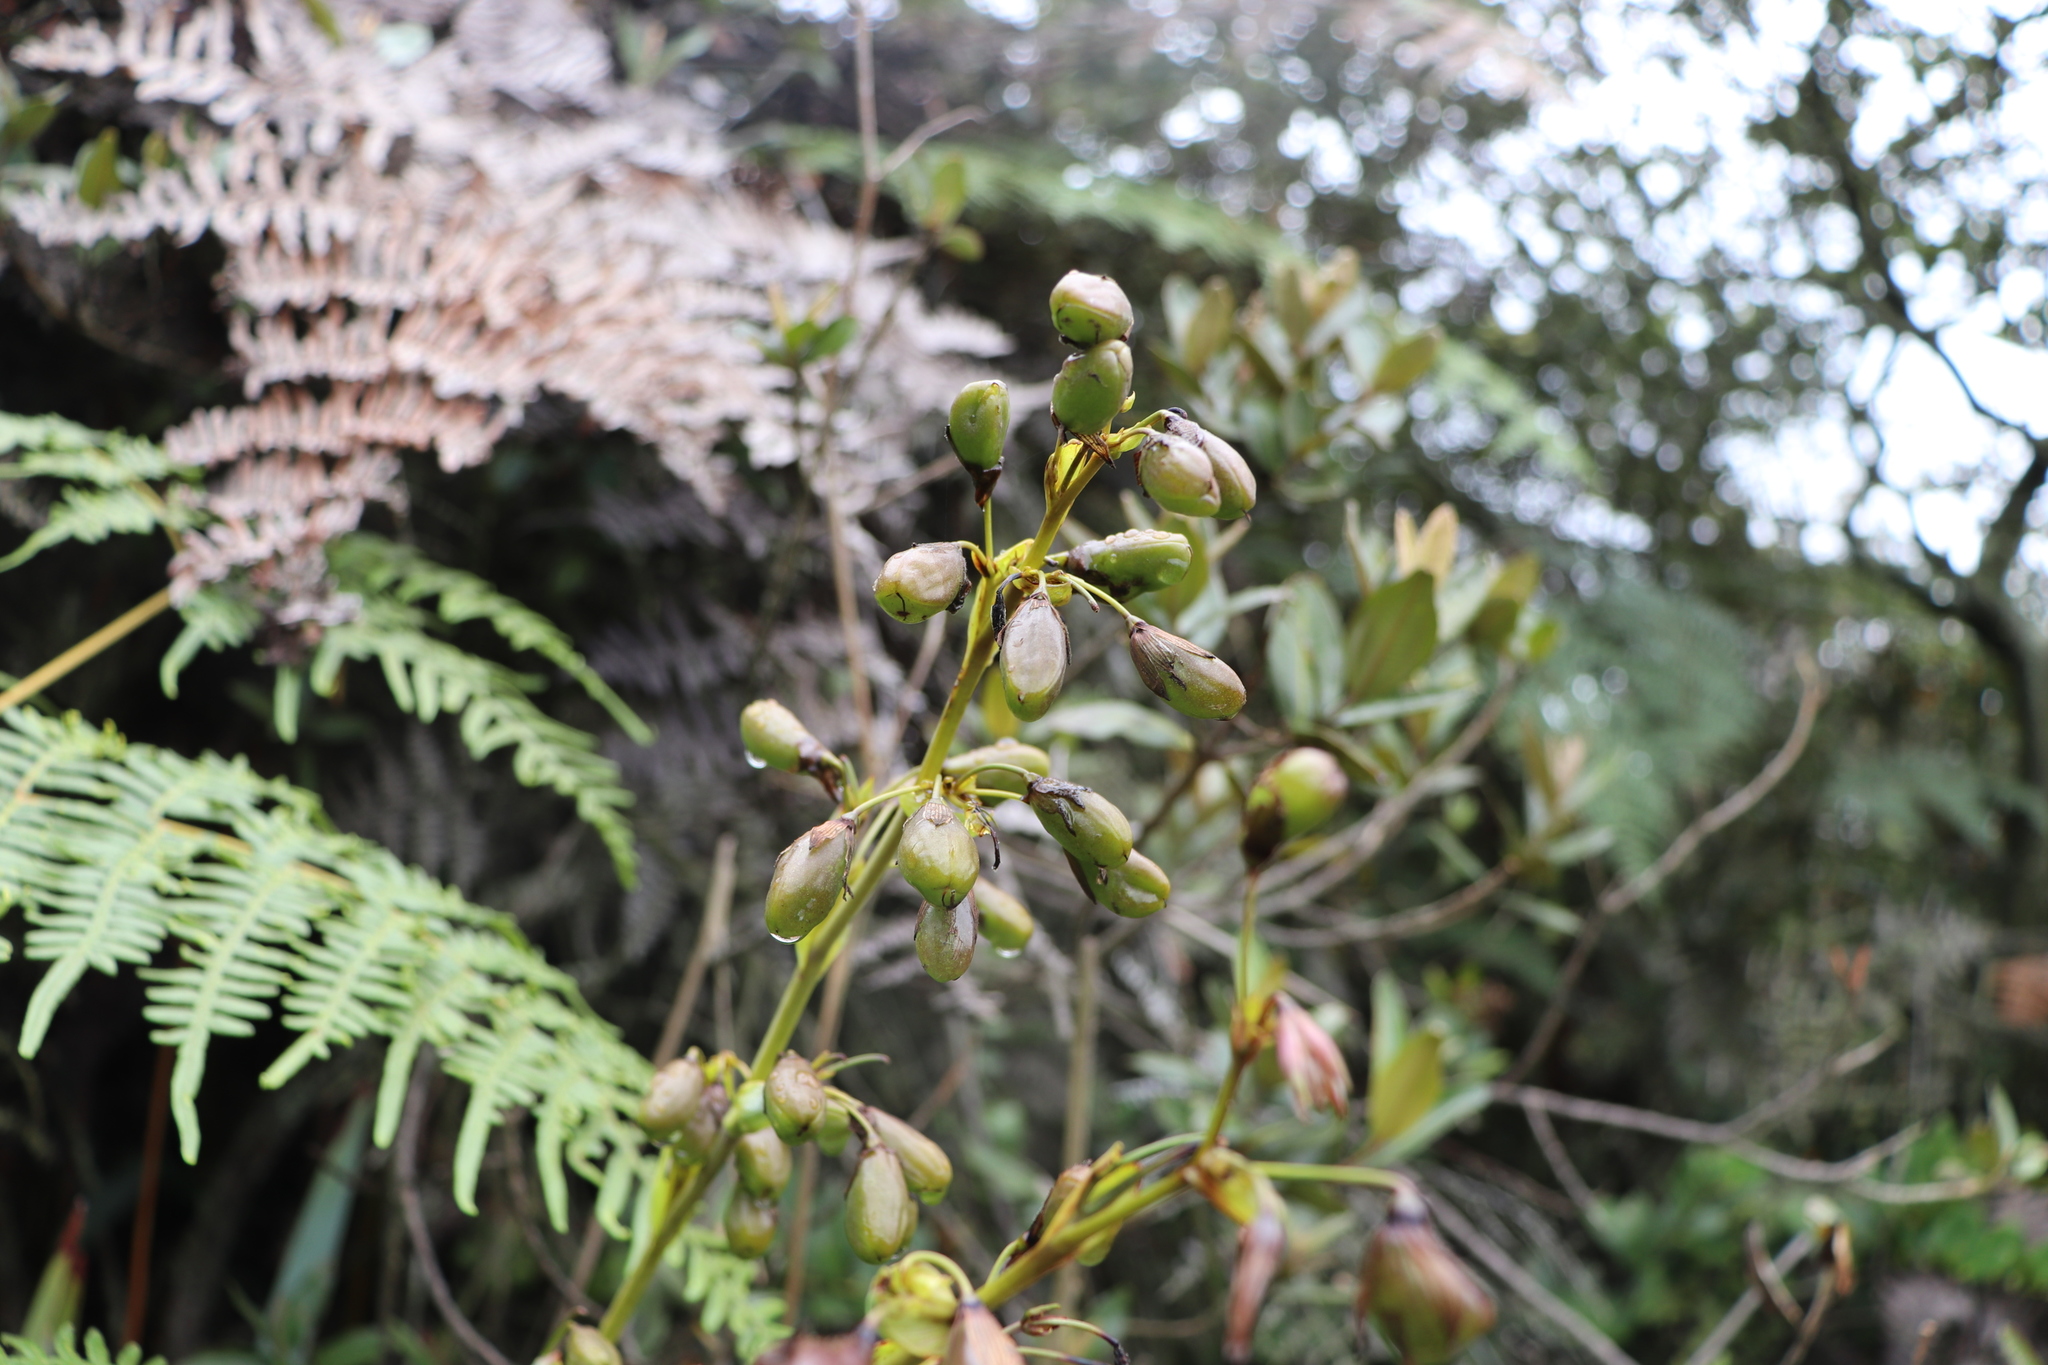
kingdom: Plantae
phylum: Tracheophyta
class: Liliopsida
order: Asparagales
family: Asphodelaceae
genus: Excremis
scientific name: Excremis coarctata
